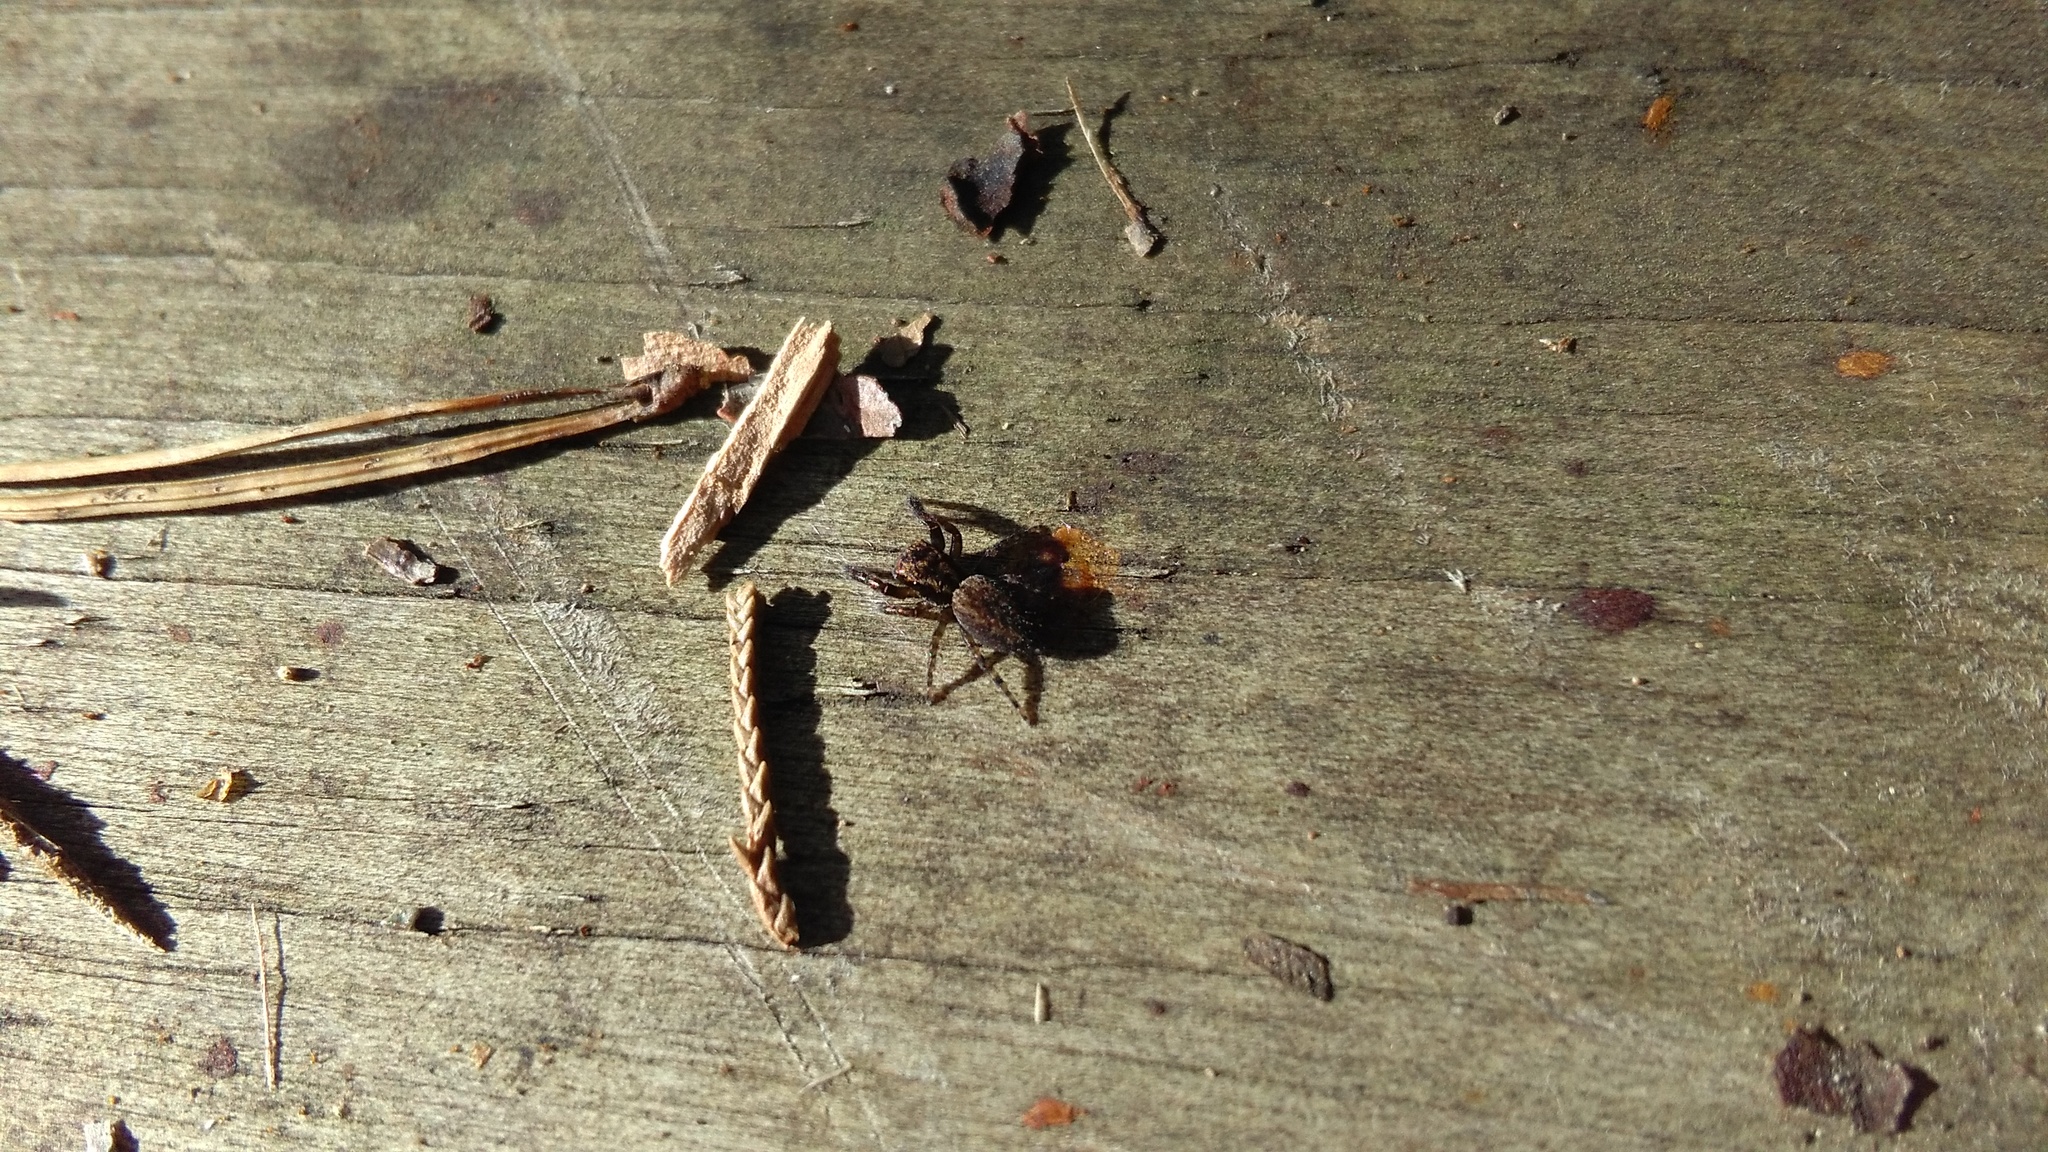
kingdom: Animalia
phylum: Arthropoda
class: Arachnida
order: Araneae
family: Salticidae
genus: Trite
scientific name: Trite auricoma
